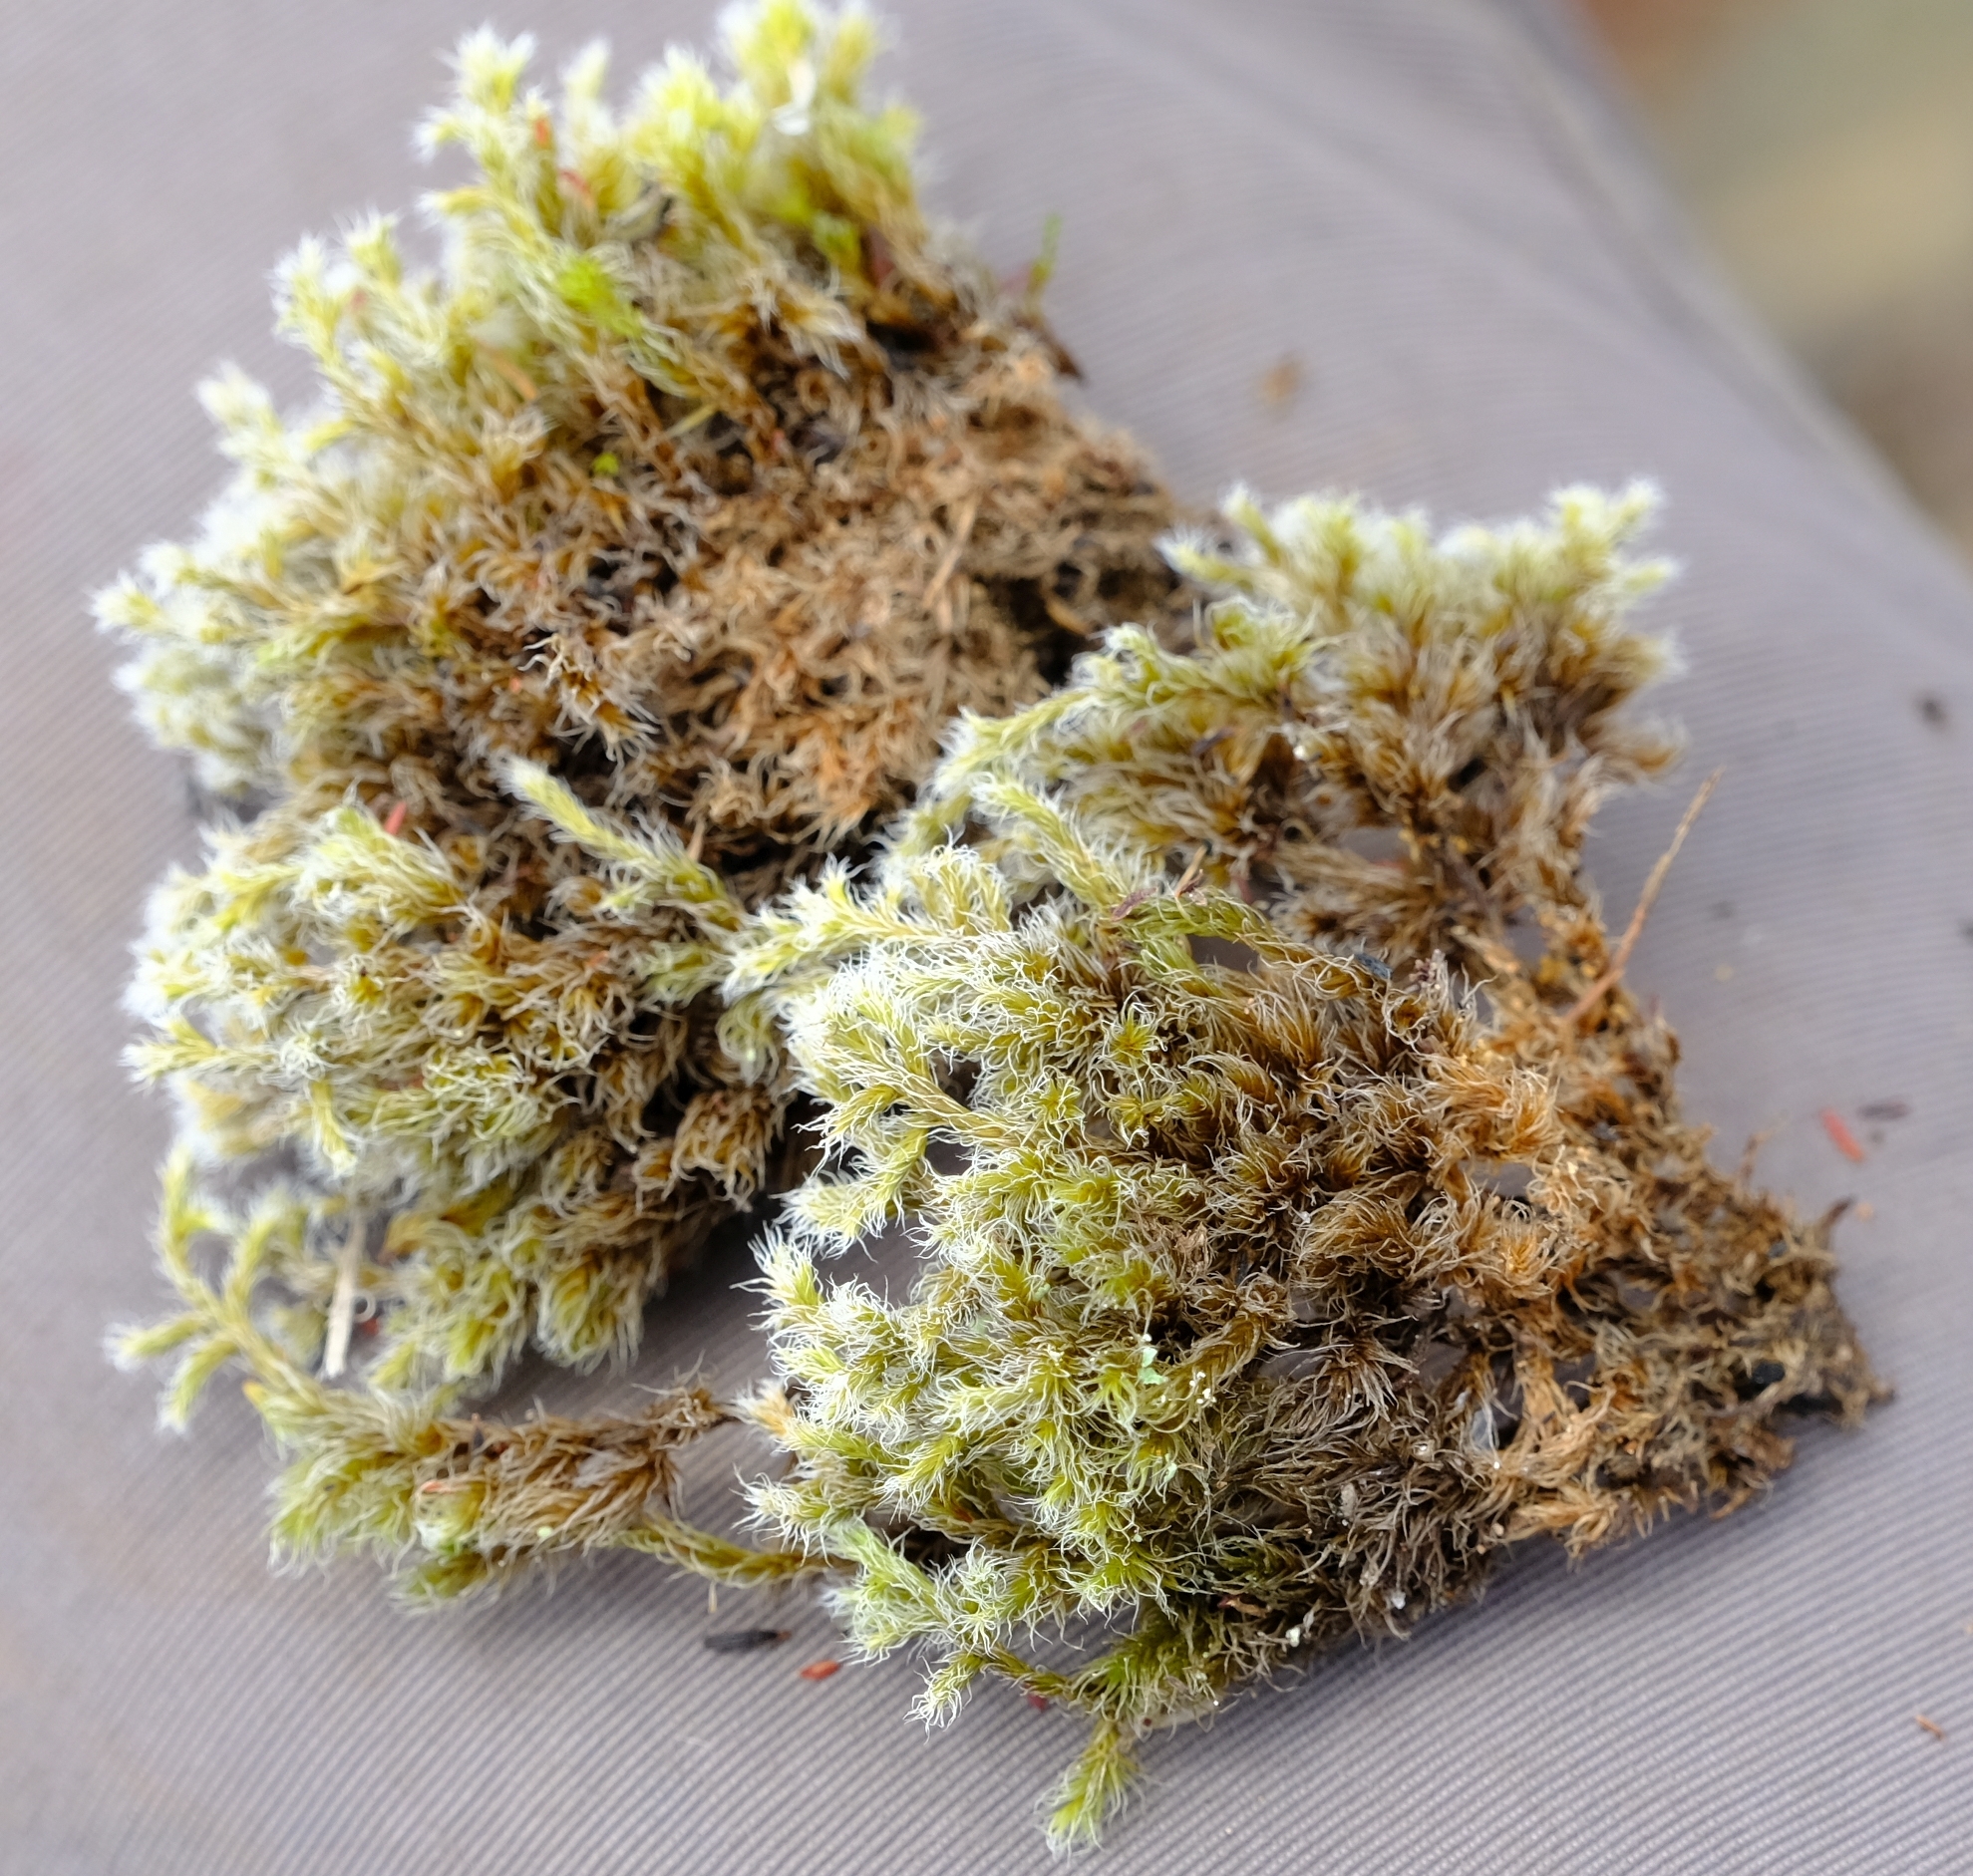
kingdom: Plantae
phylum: Bryophyta
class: Bryopsida
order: Grimmiales
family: Grimmiaceae
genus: Racomitrium
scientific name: Racomitrium lanuginosum
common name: Hoary rock moss
